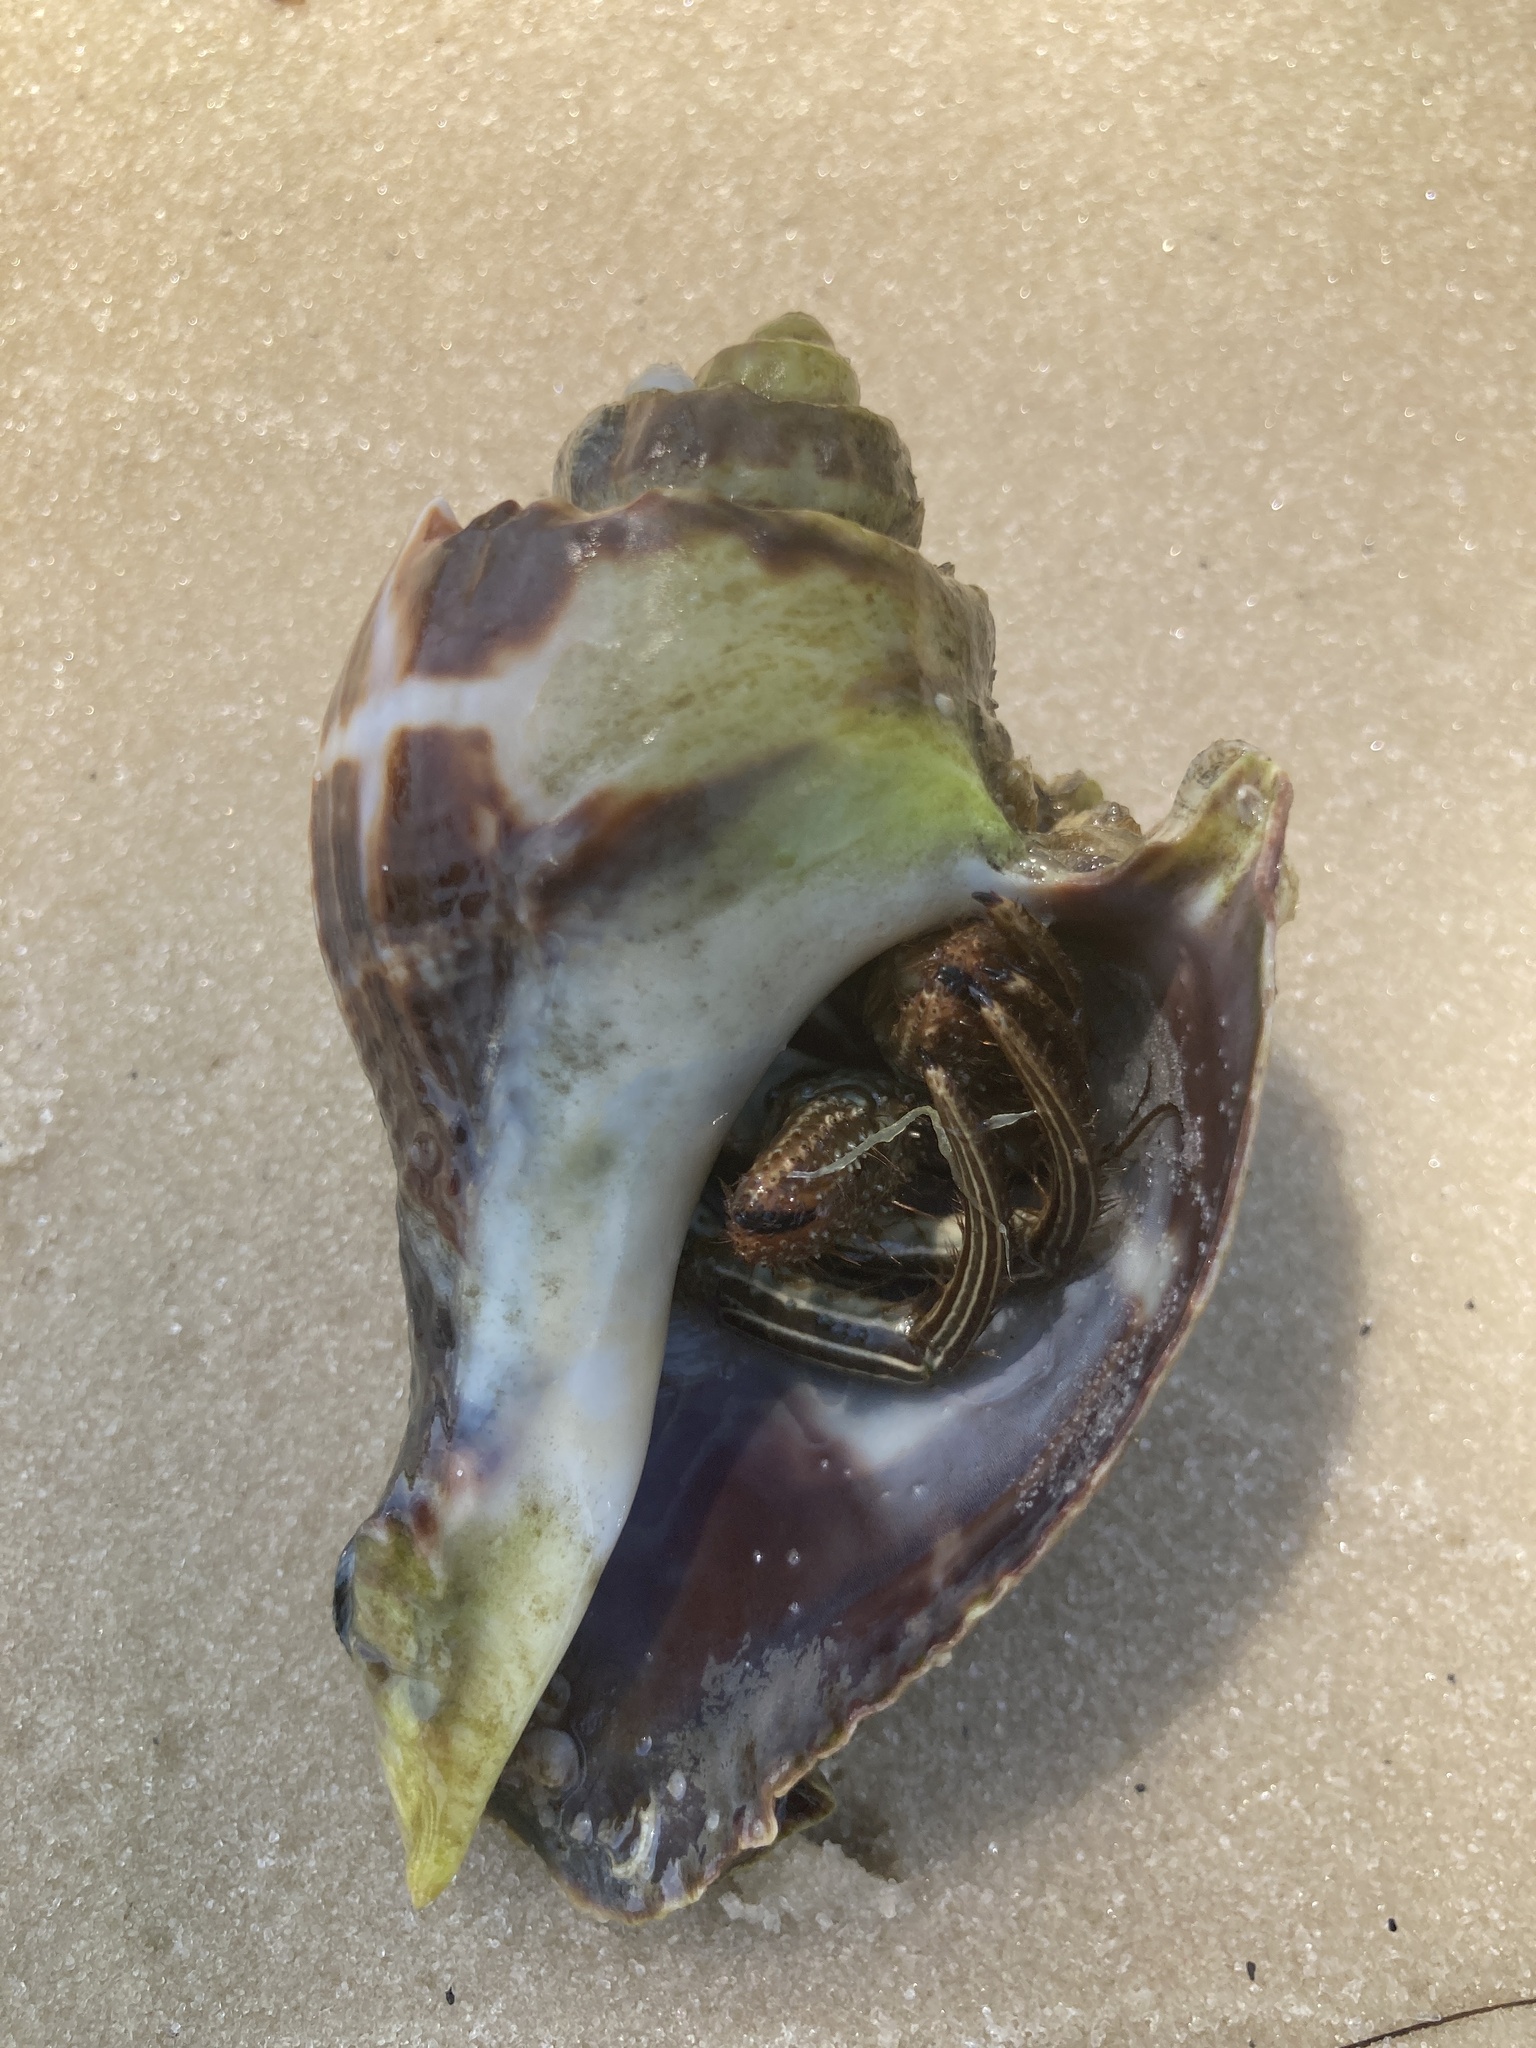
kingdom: Animalia
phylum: Mollusca
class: Gastropoda
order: Neogastropoda
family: Melongenidae
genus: Melongena
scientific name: Melongena corona
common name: American crown conch
